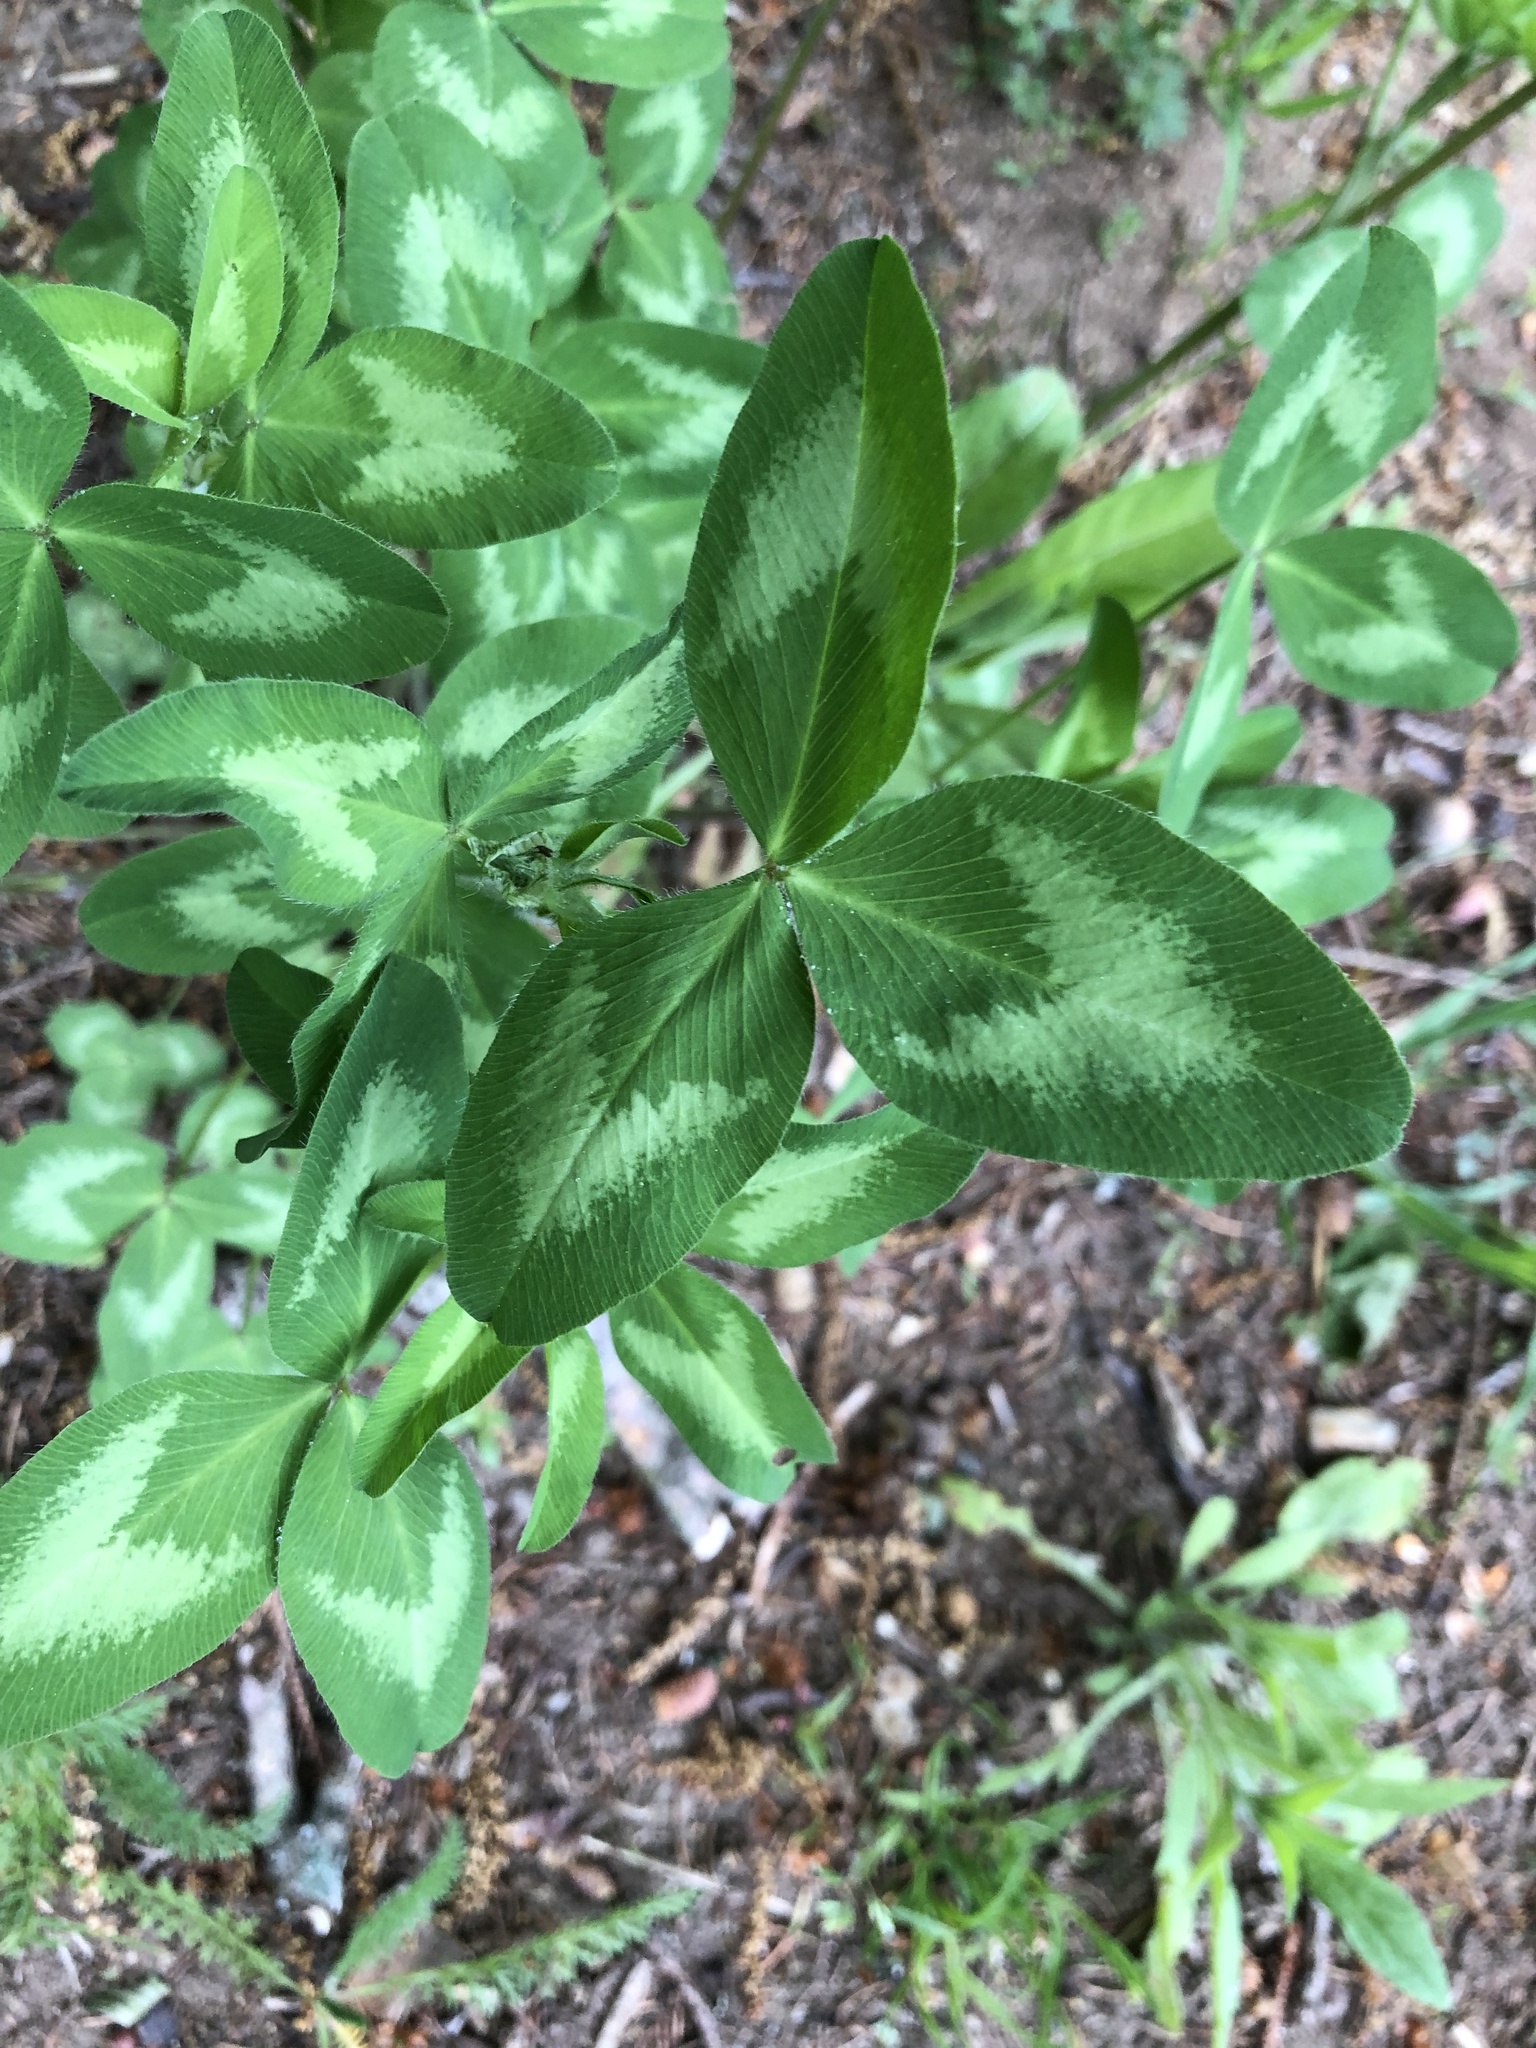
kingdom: Plantae
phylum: Tracheophyta
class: Magnoliopsida
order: Fabales
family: Fabaceae
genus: Trifolium
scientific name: Trifolium pratense
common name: Red clover
